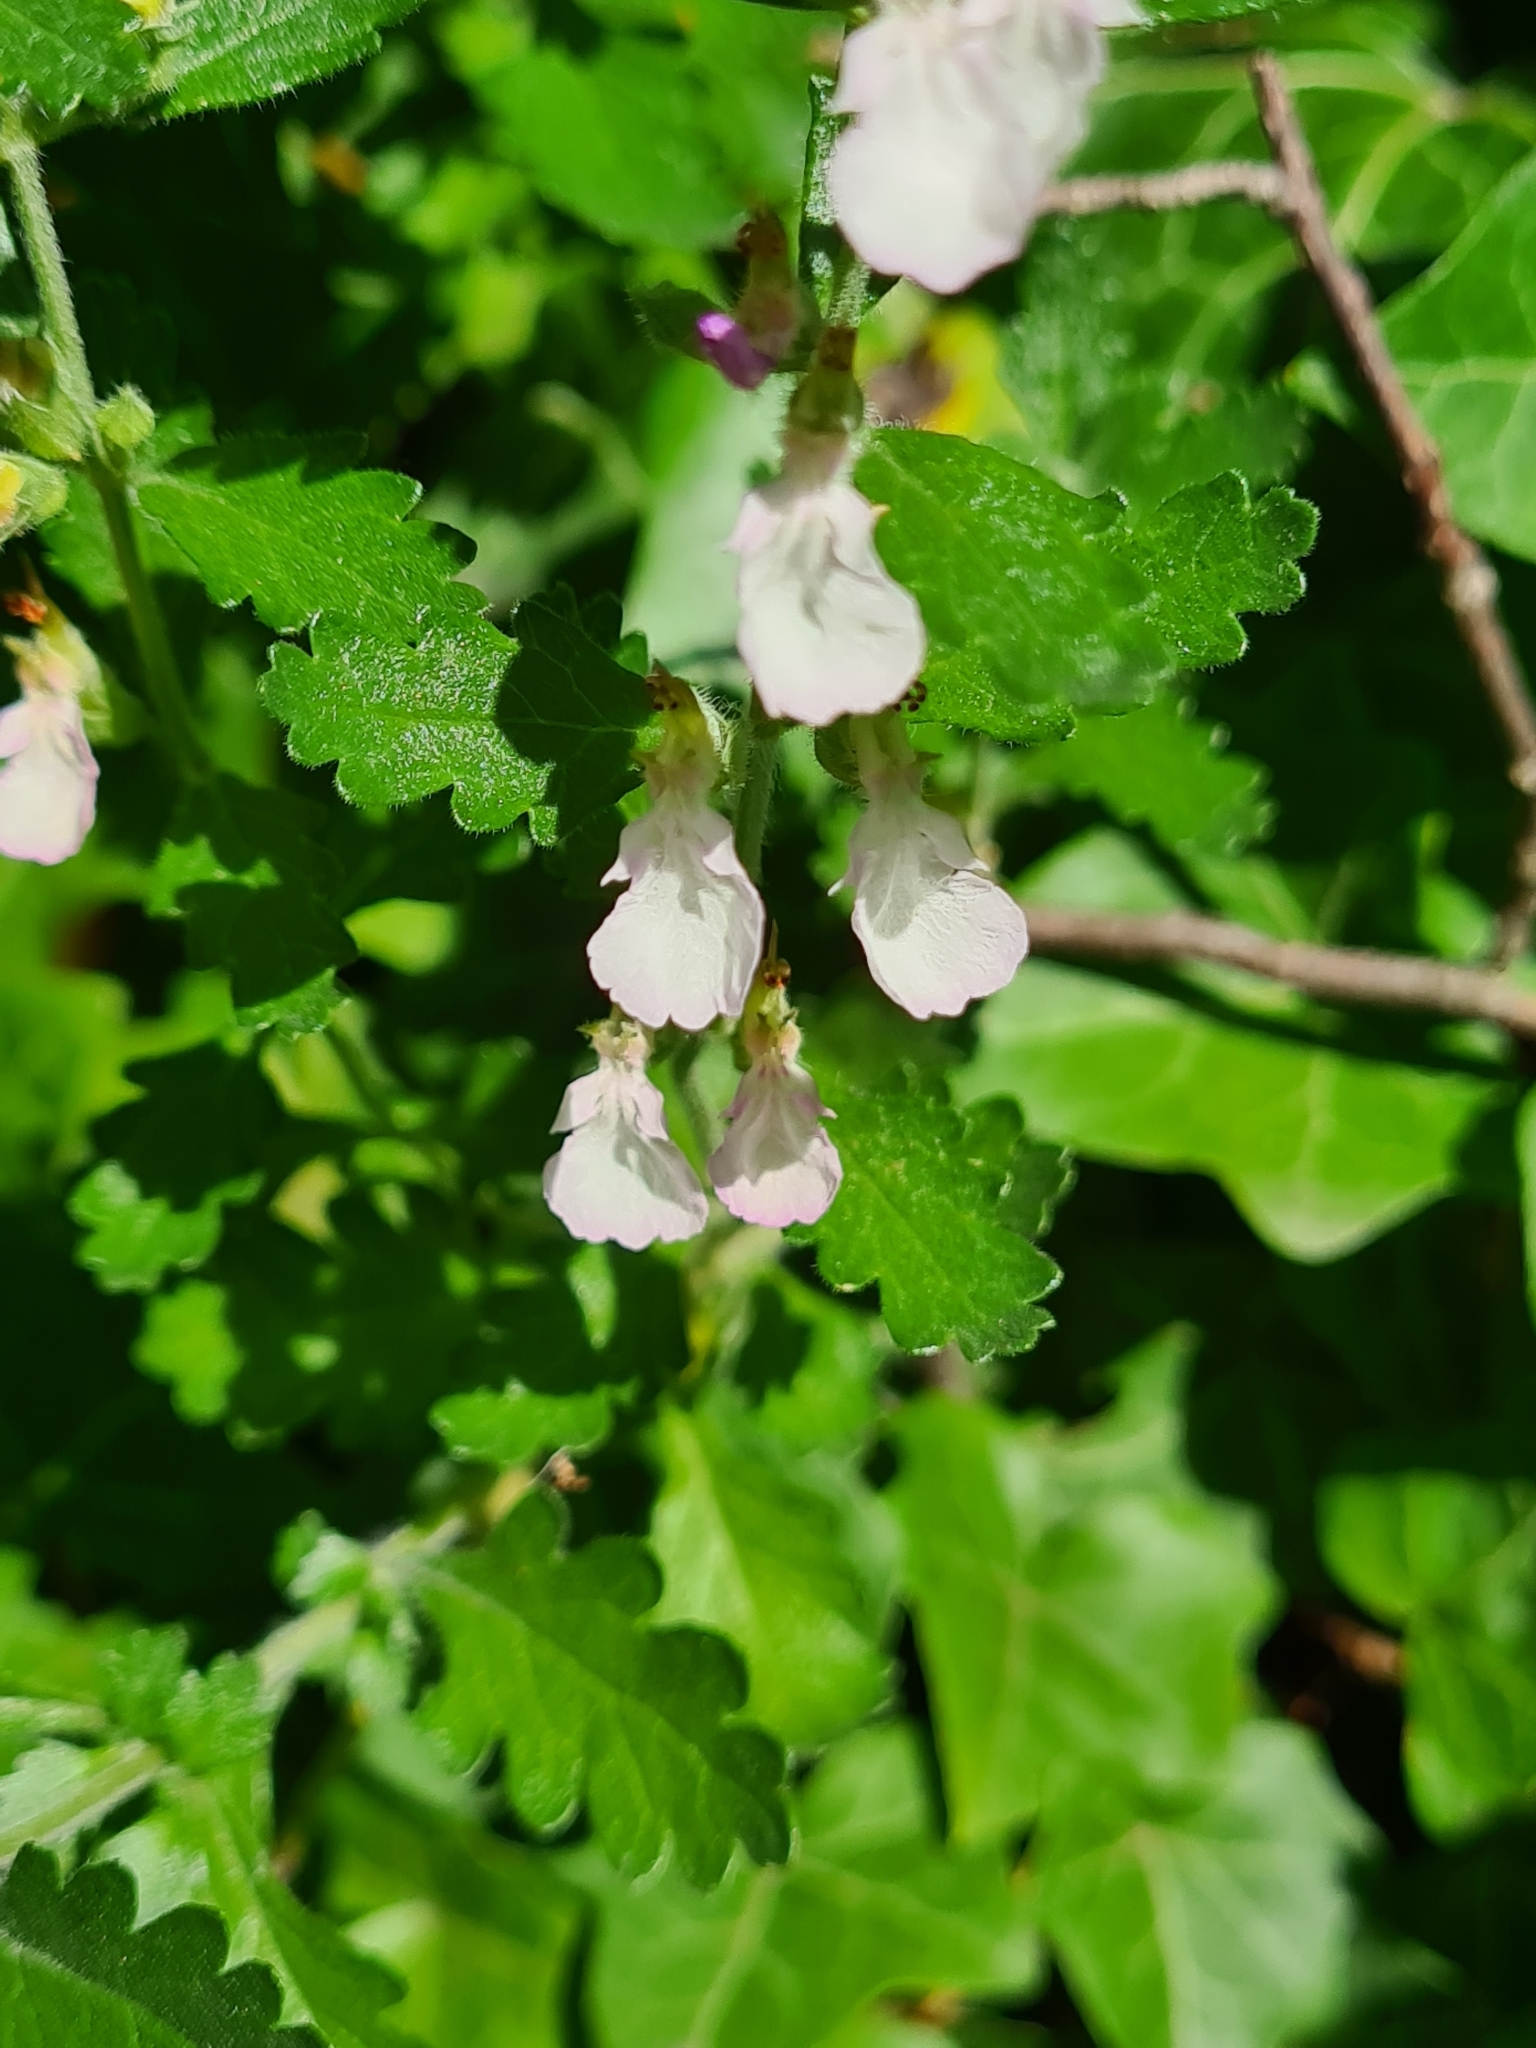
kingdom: Plantae
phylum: Tracheophyta
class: Magnoliopsida
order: Lamiales
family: Lamiaceae
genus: Teucrium
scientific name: Teucrium chamaedrys
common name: Wall germander
